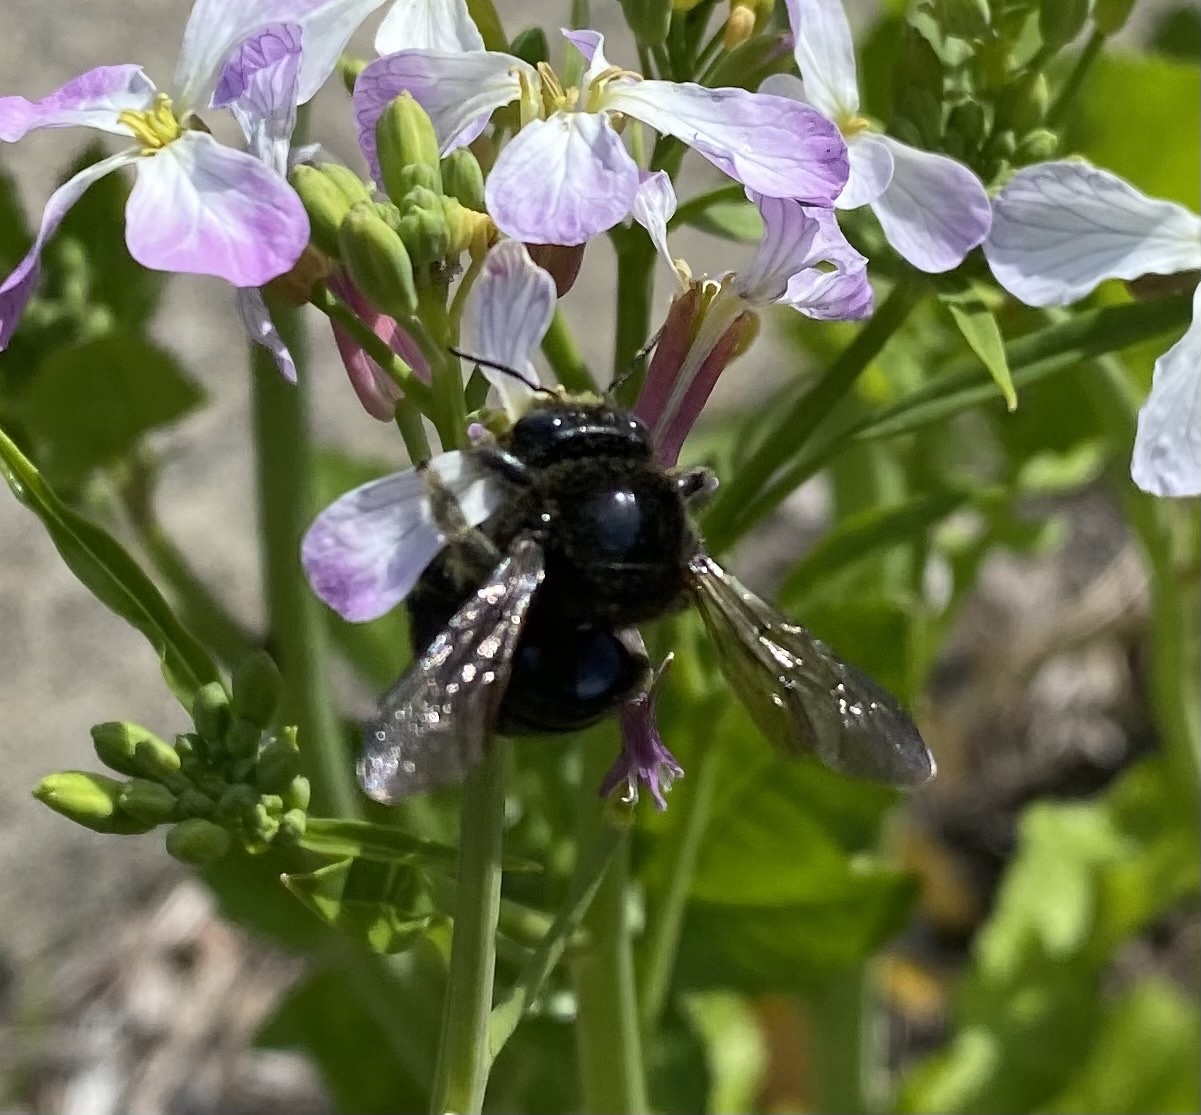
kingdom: Animalia
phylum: Arthropoda
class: Insecta
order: Hymenoptera
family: Apidae
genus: Xylocopa
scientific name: Xylocopa tabaniformis
